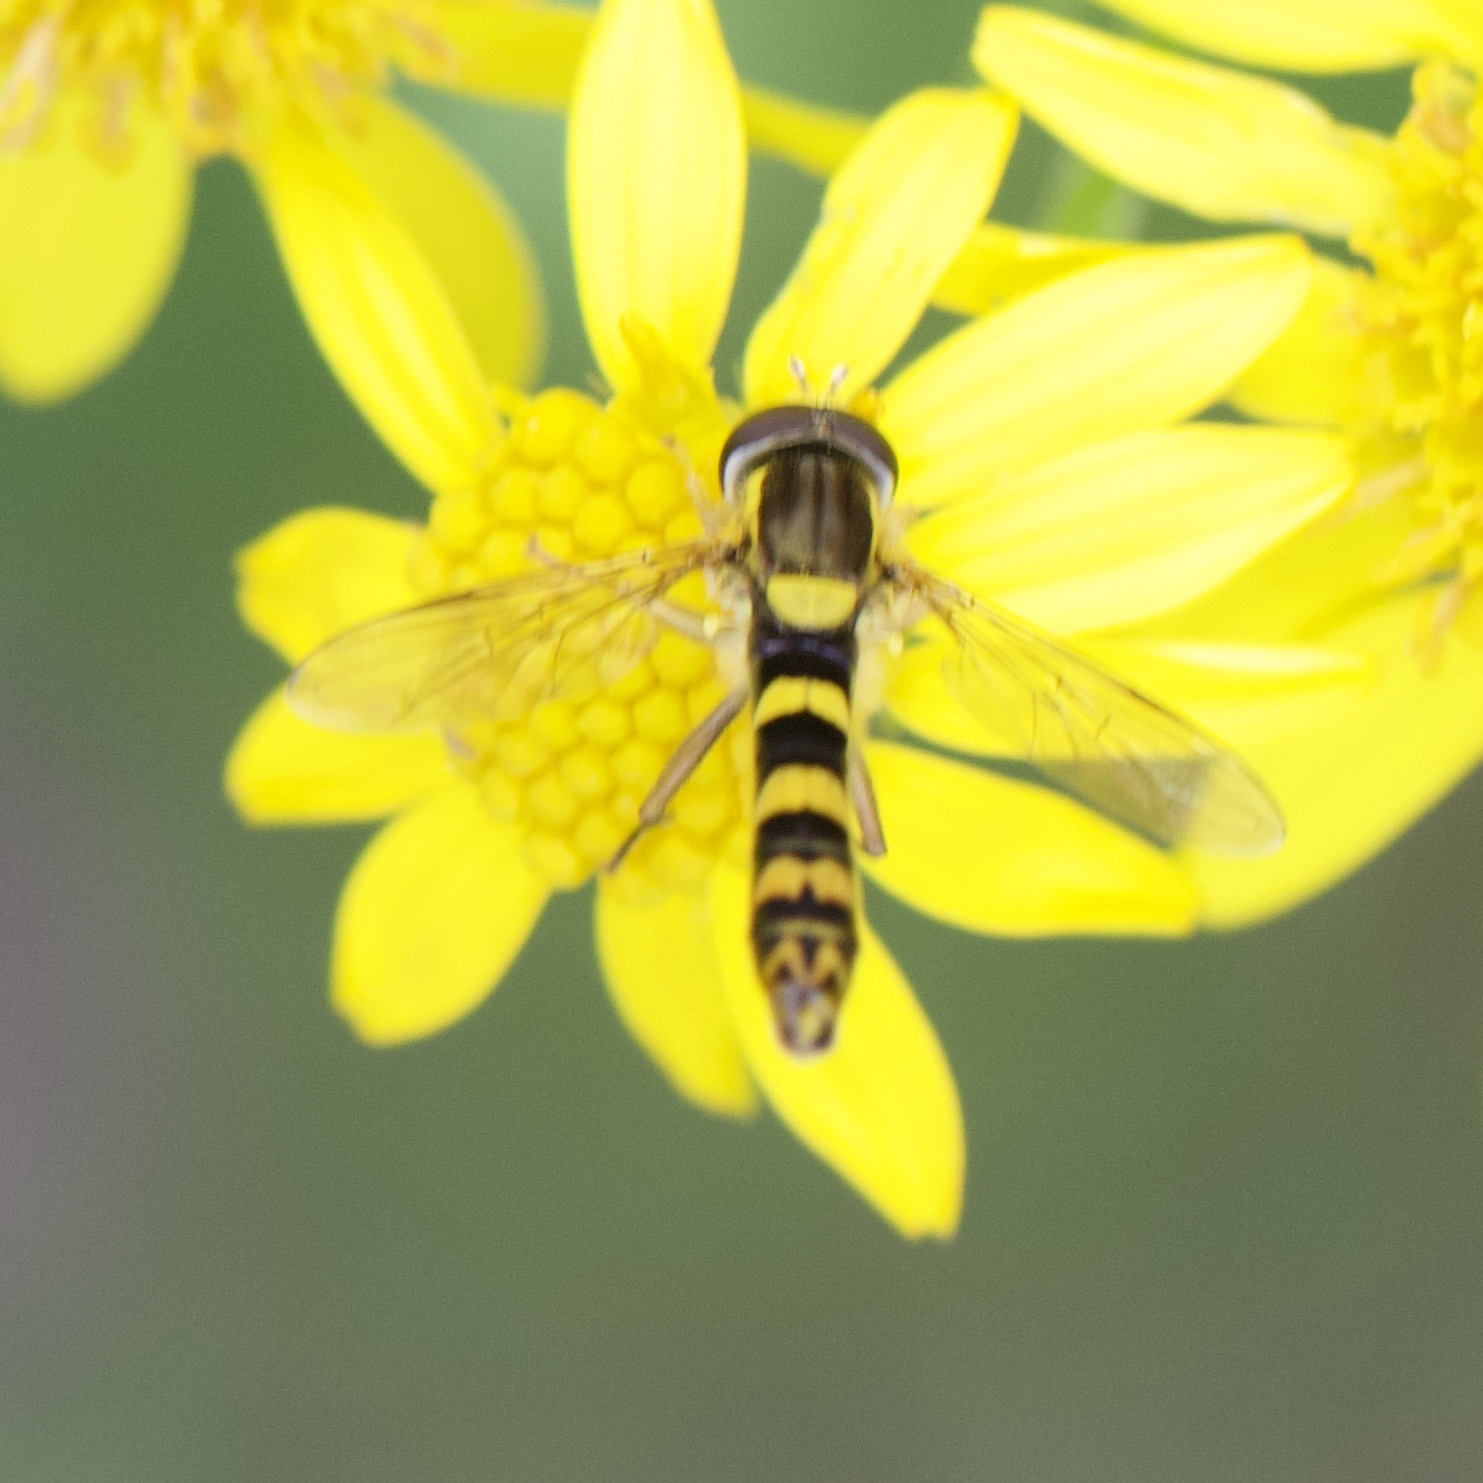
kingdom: Animalia
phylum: Arthropoda
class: Insecta
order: Diptera
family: Syrphidae
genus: Sphaerophoria
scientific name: Sphaerophoria scripta
